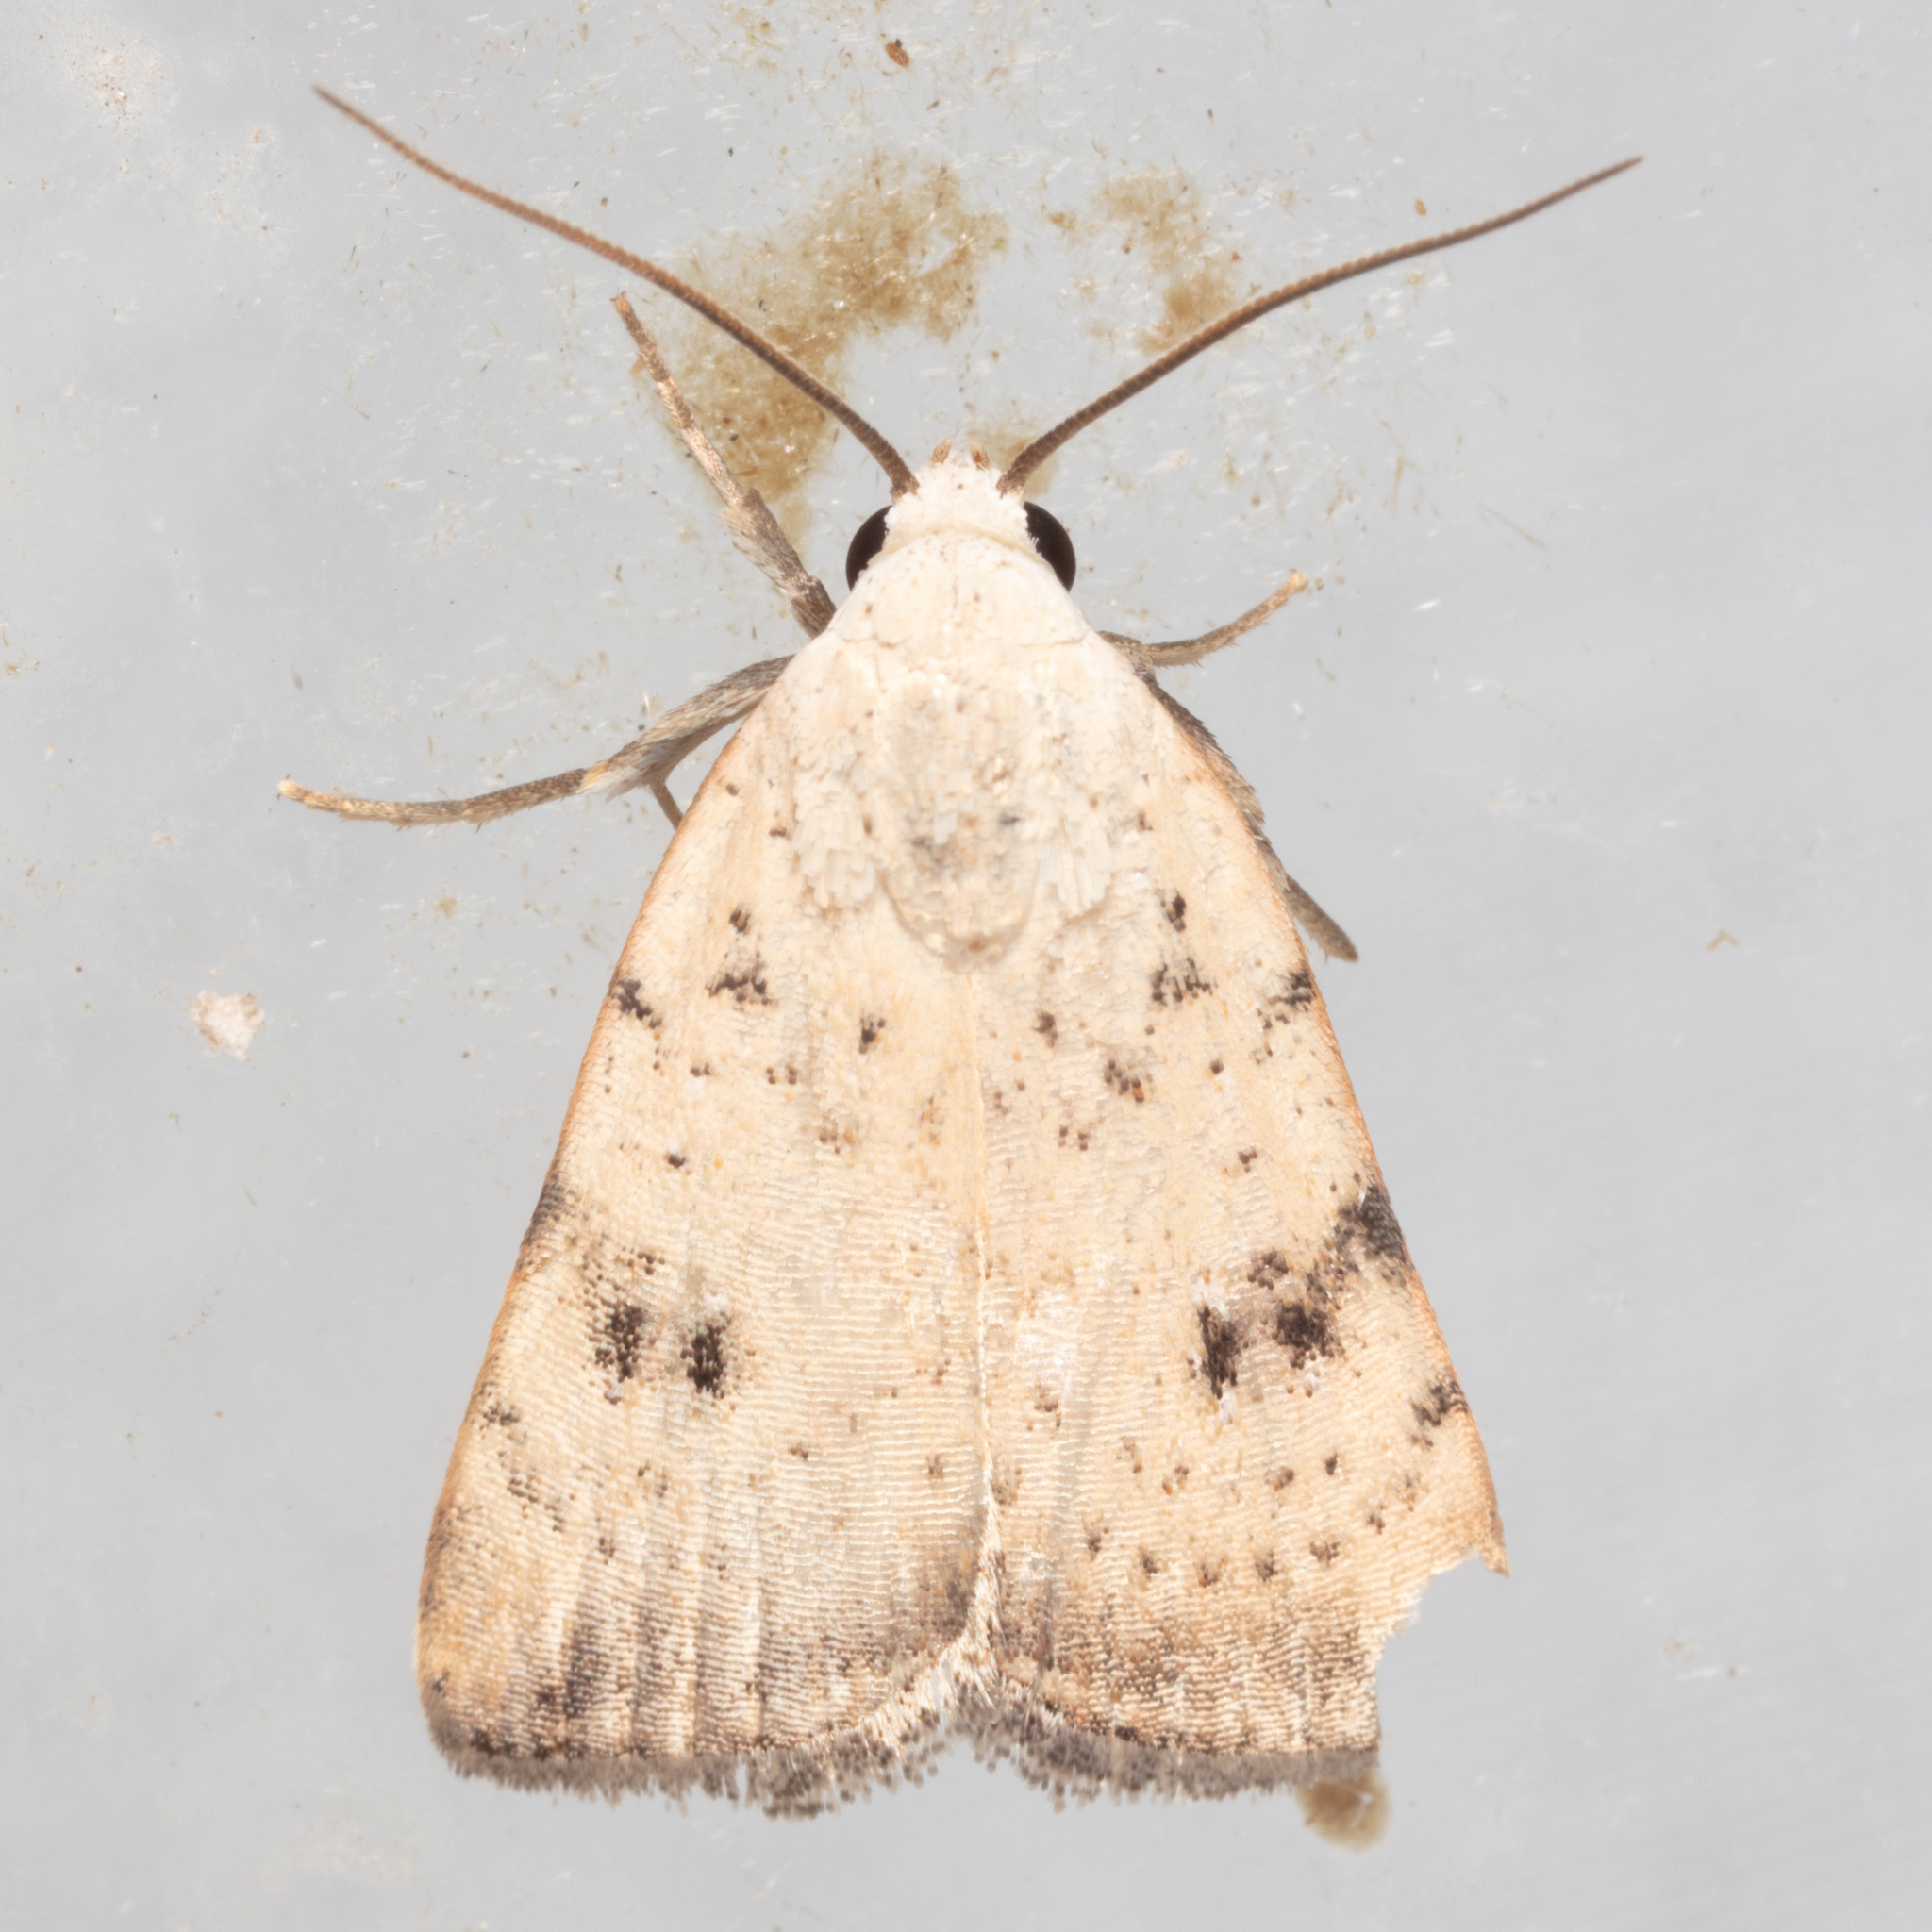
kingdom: Animalia
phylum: Arthropoda
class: Insecta
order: Lepidoptera
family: Noctuidae
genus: Micrathetis
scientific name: Micrathetis triplex
